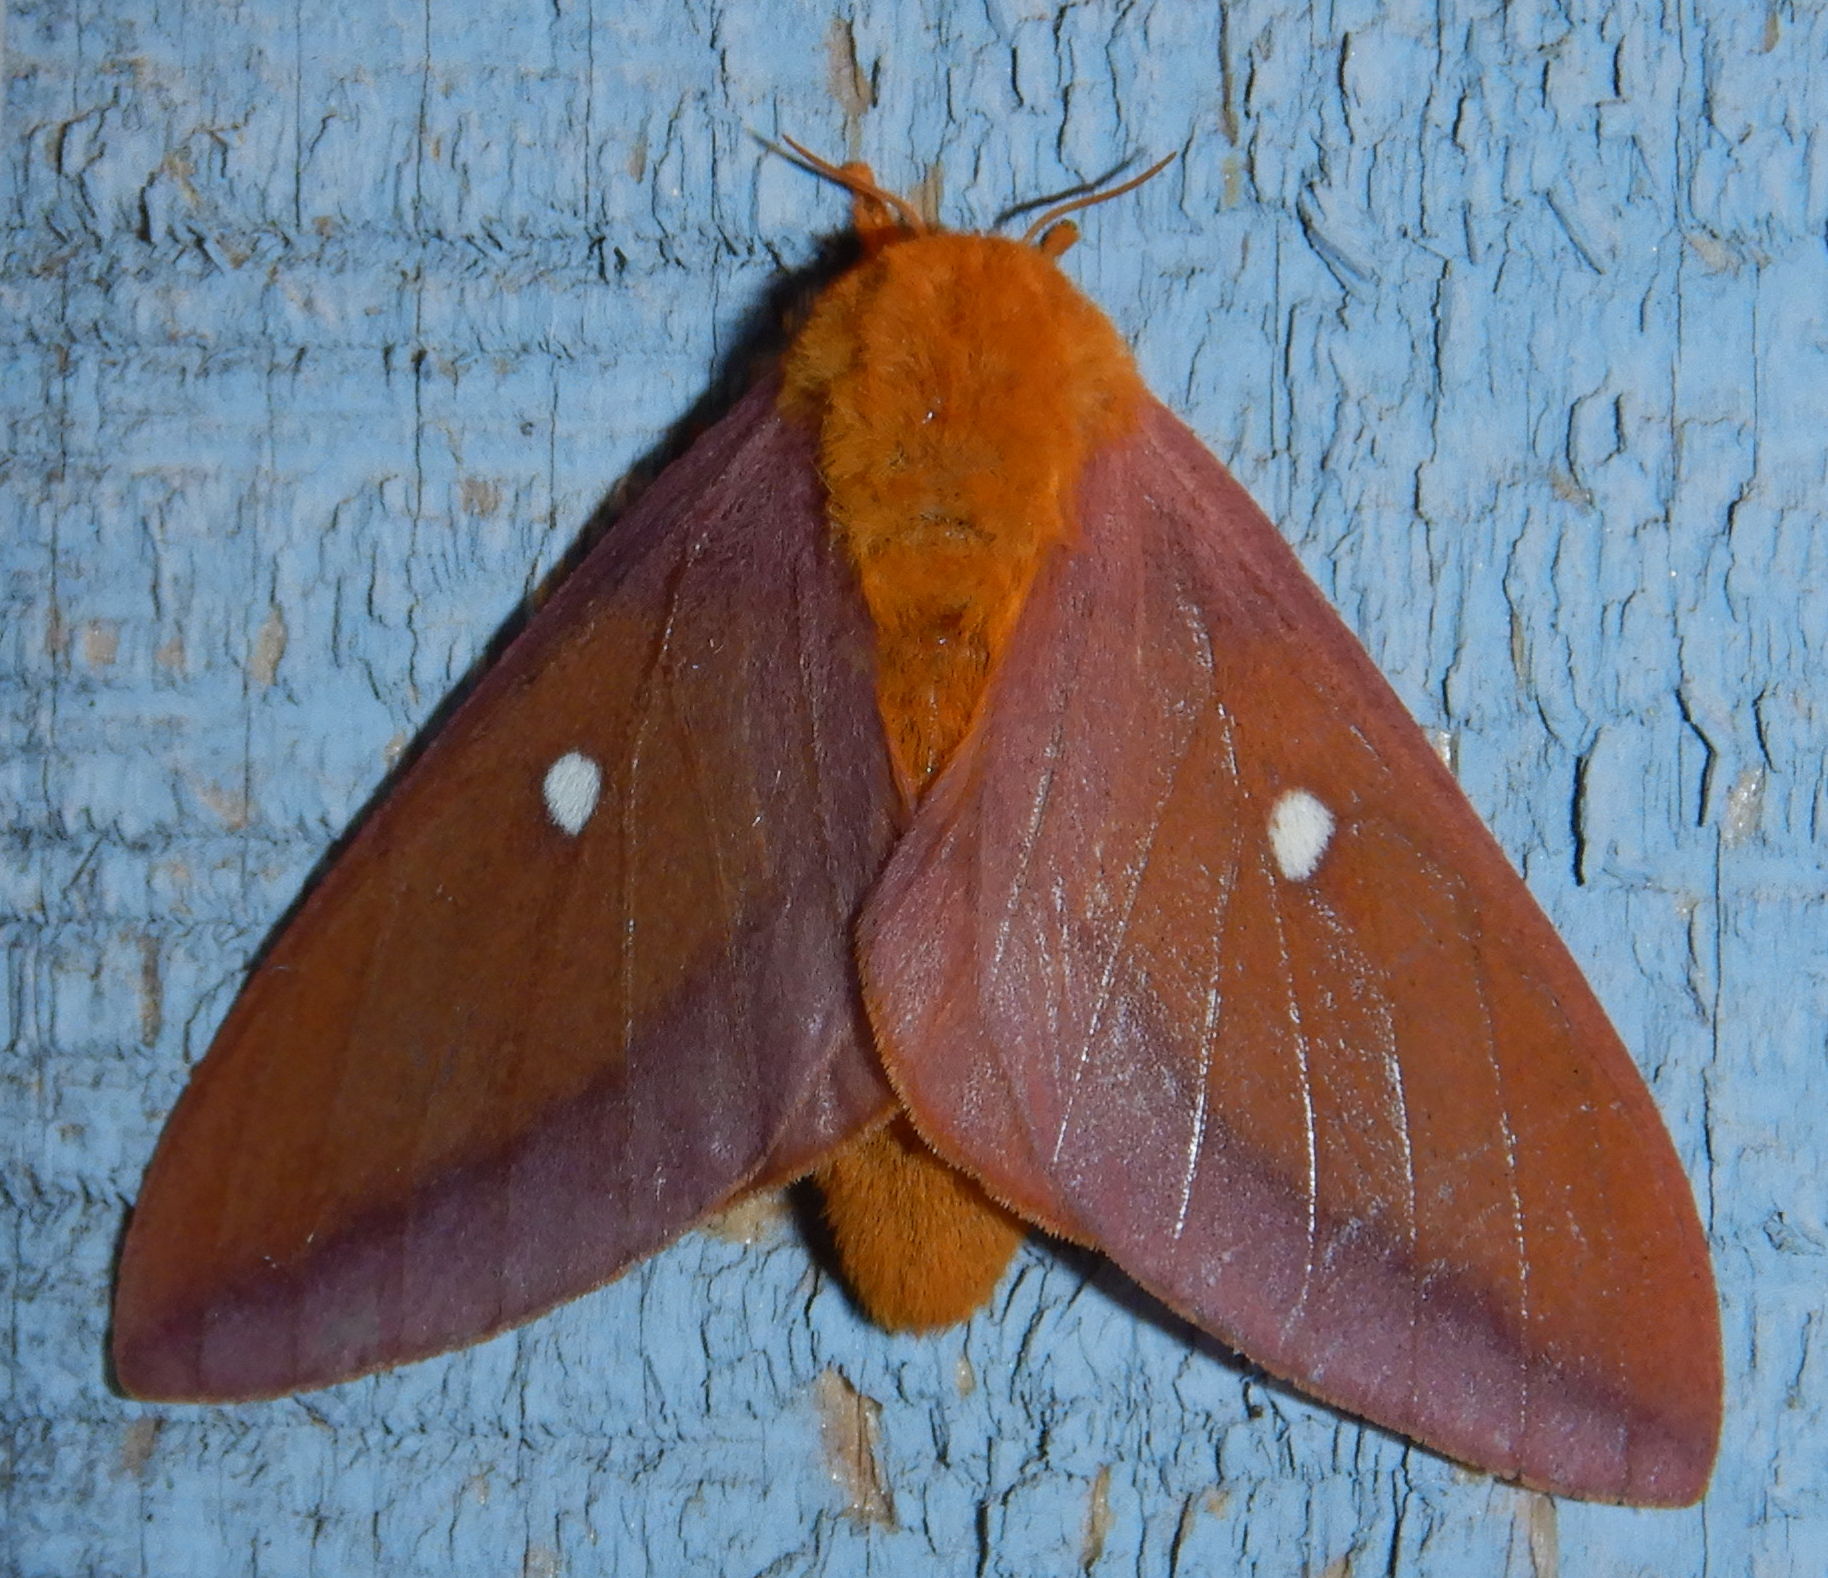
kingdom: Animalia
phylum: Arthropoda
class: Insecta
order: Lepidoptera
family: Saturniidae
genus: Anisota
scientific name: Anisota virginiensis
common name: Pink striped oakworm moth
